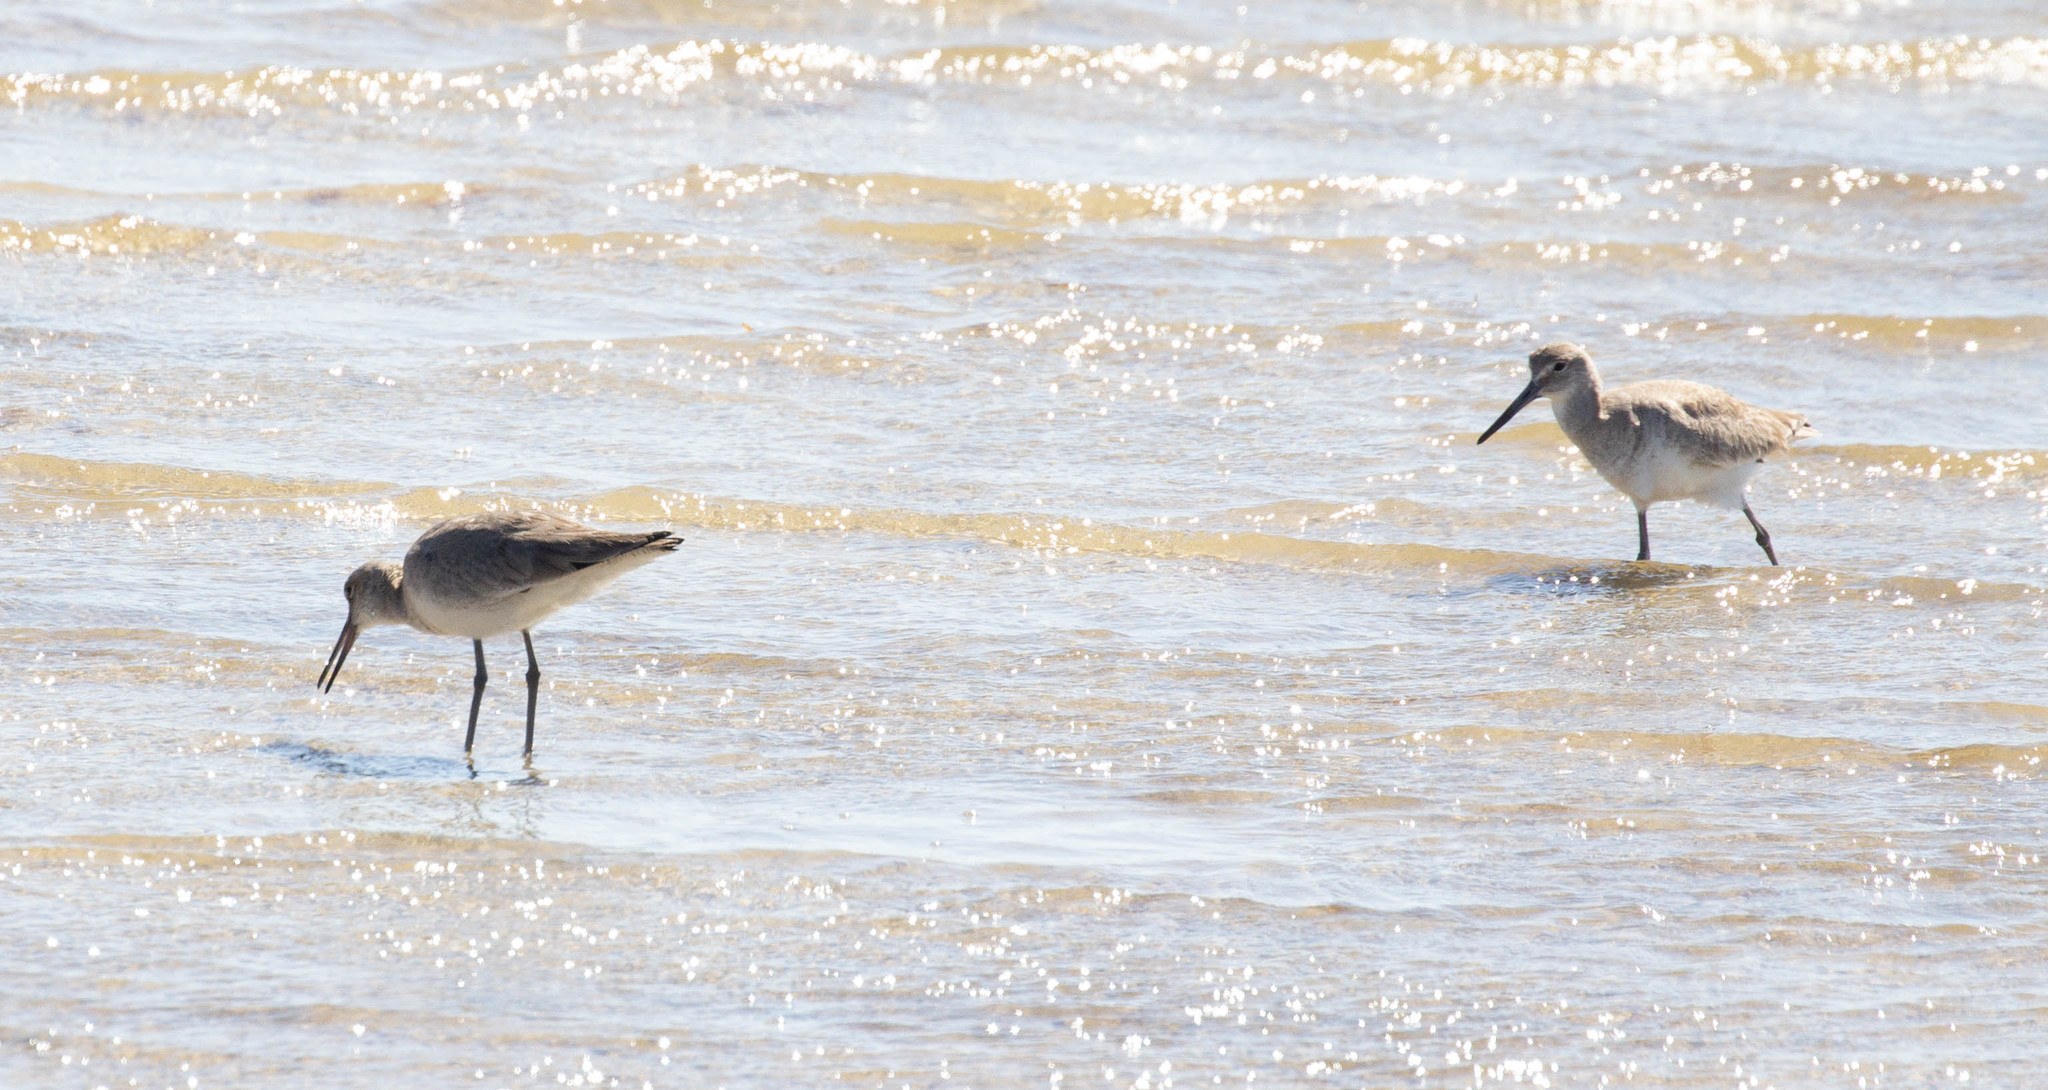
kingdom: Animalia
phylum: Chordata
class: Aves
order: Charadriiformes
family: Scolopacidae
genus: Tringa
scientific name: Tringa semipalmata
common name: Willet
